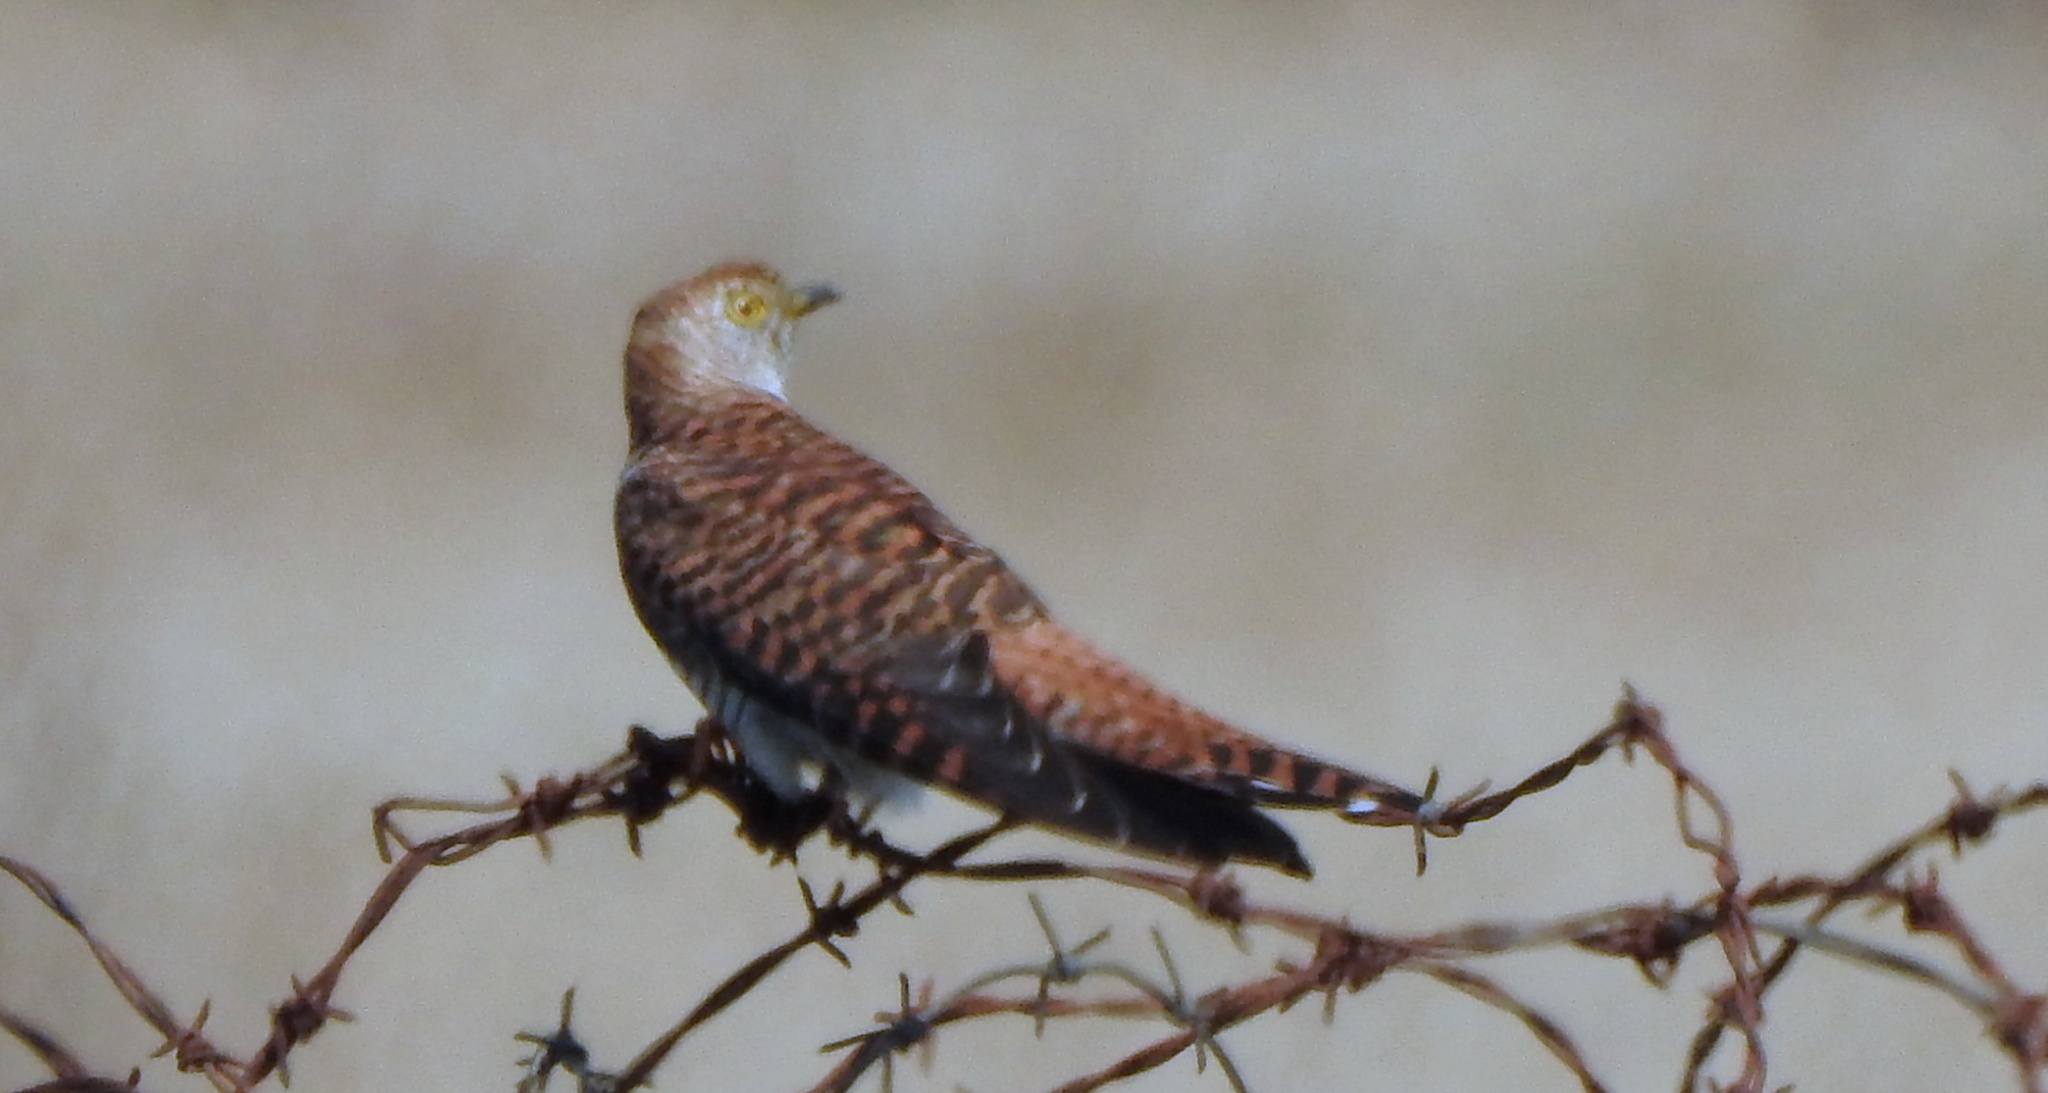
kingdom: Animalia
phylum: Chordata
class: Aves
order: Cuculiformes
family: Cuculidae
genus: Cuculus
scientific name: Cuculus canorus
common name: Common cuckoo
